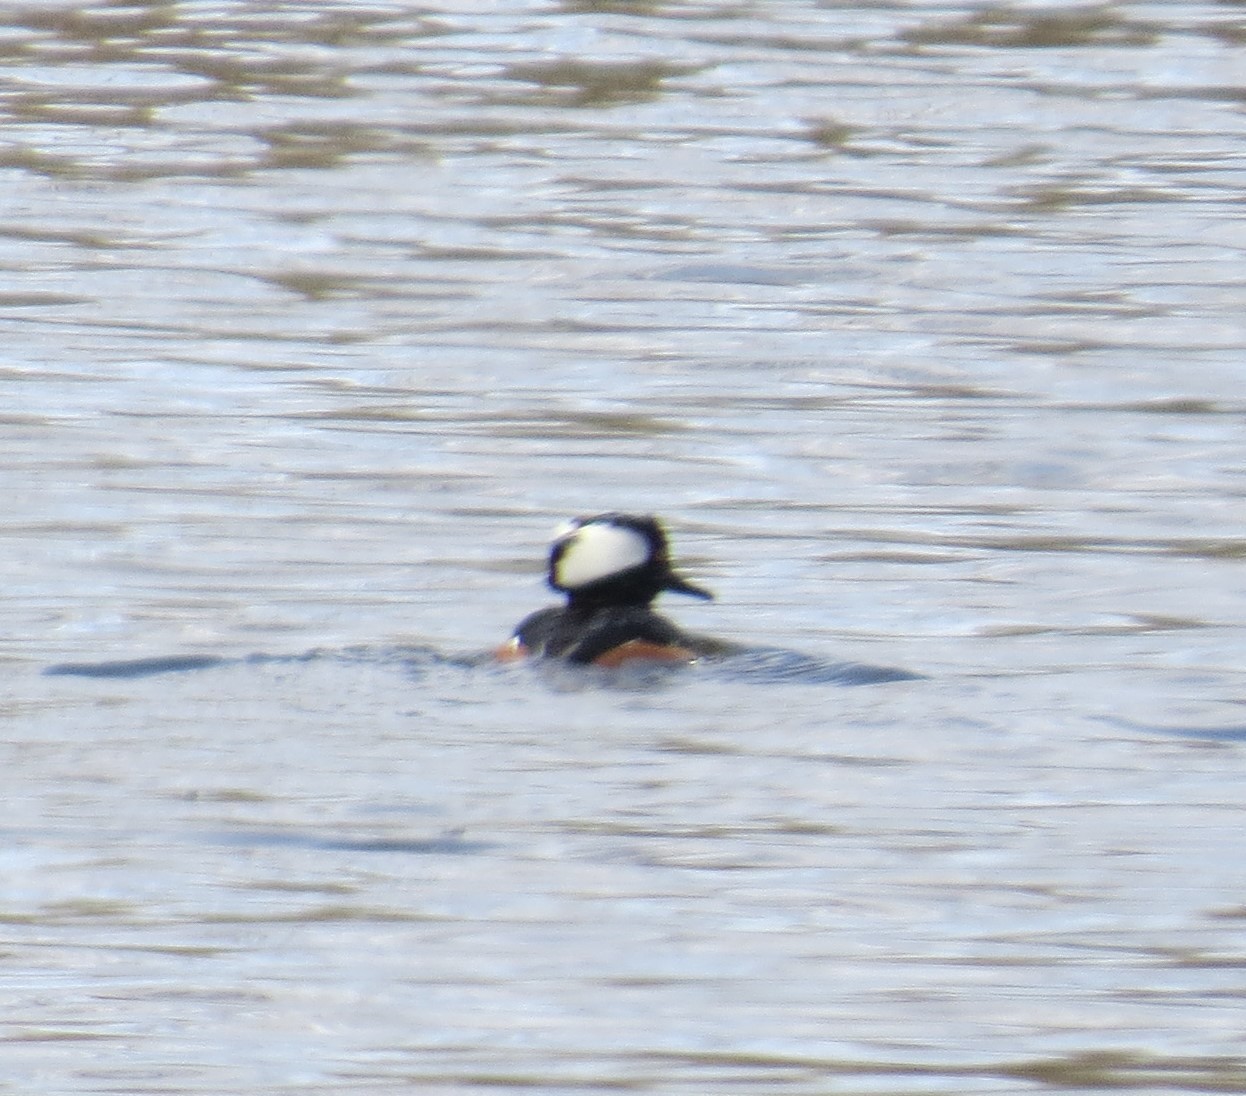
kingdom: Animalia
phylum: Chordata
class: Aves
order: Anseriformes
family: Anatidae
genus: Lophodytes
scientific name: Lophodytes cucullatus
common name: Hooded merganser
